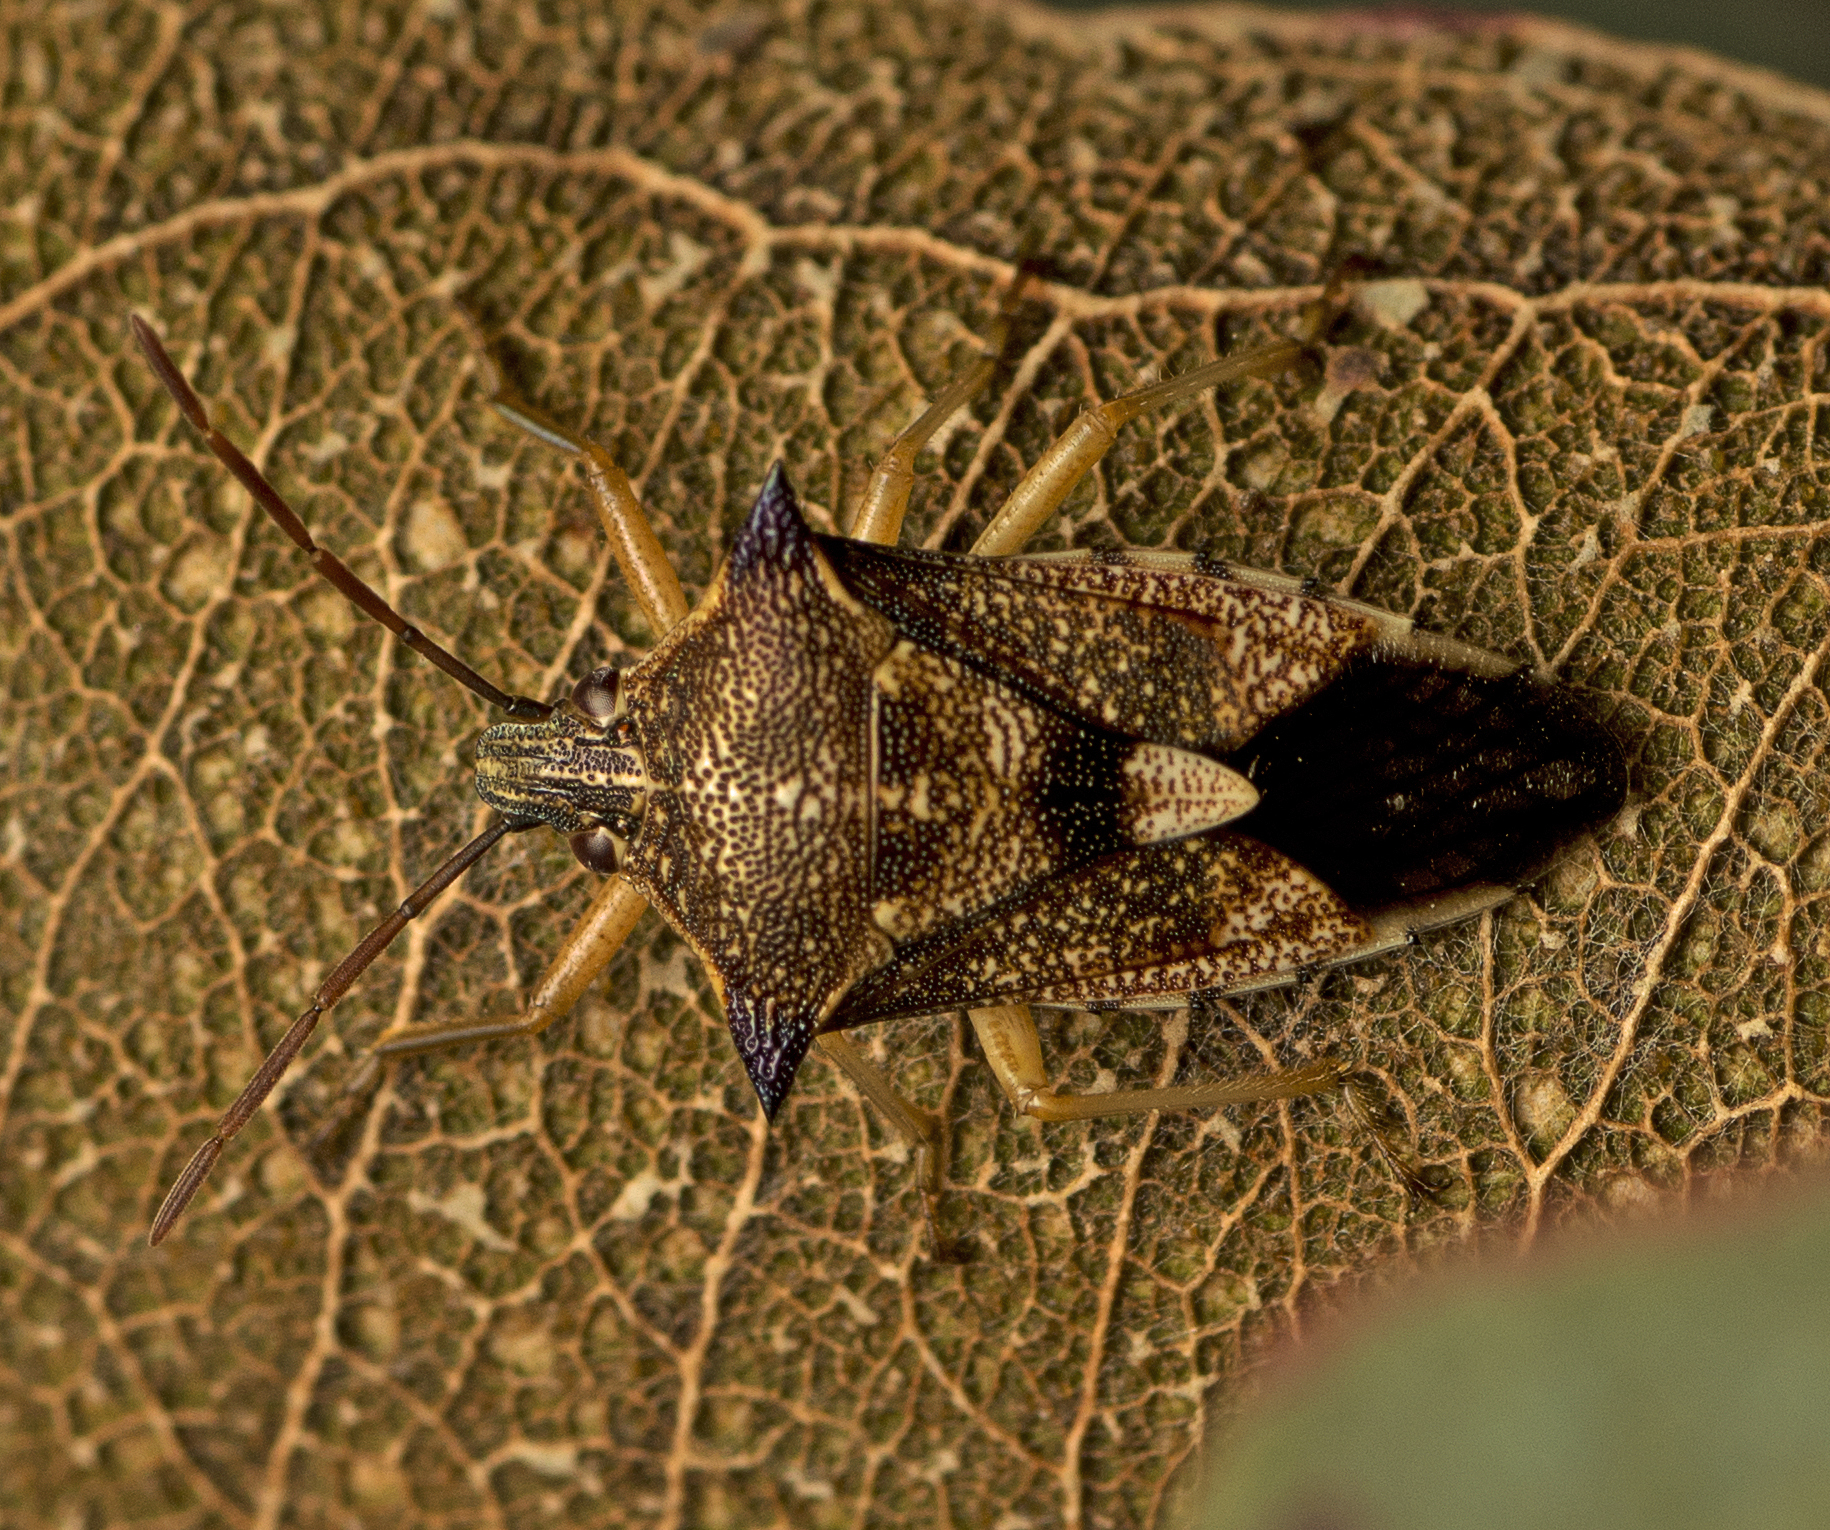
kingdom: Animalia
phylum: Arthropoda
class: Insecta
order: Hemiptera
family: Pentatomidae
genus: Oechalia
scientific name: Oechalia schellenbergii
